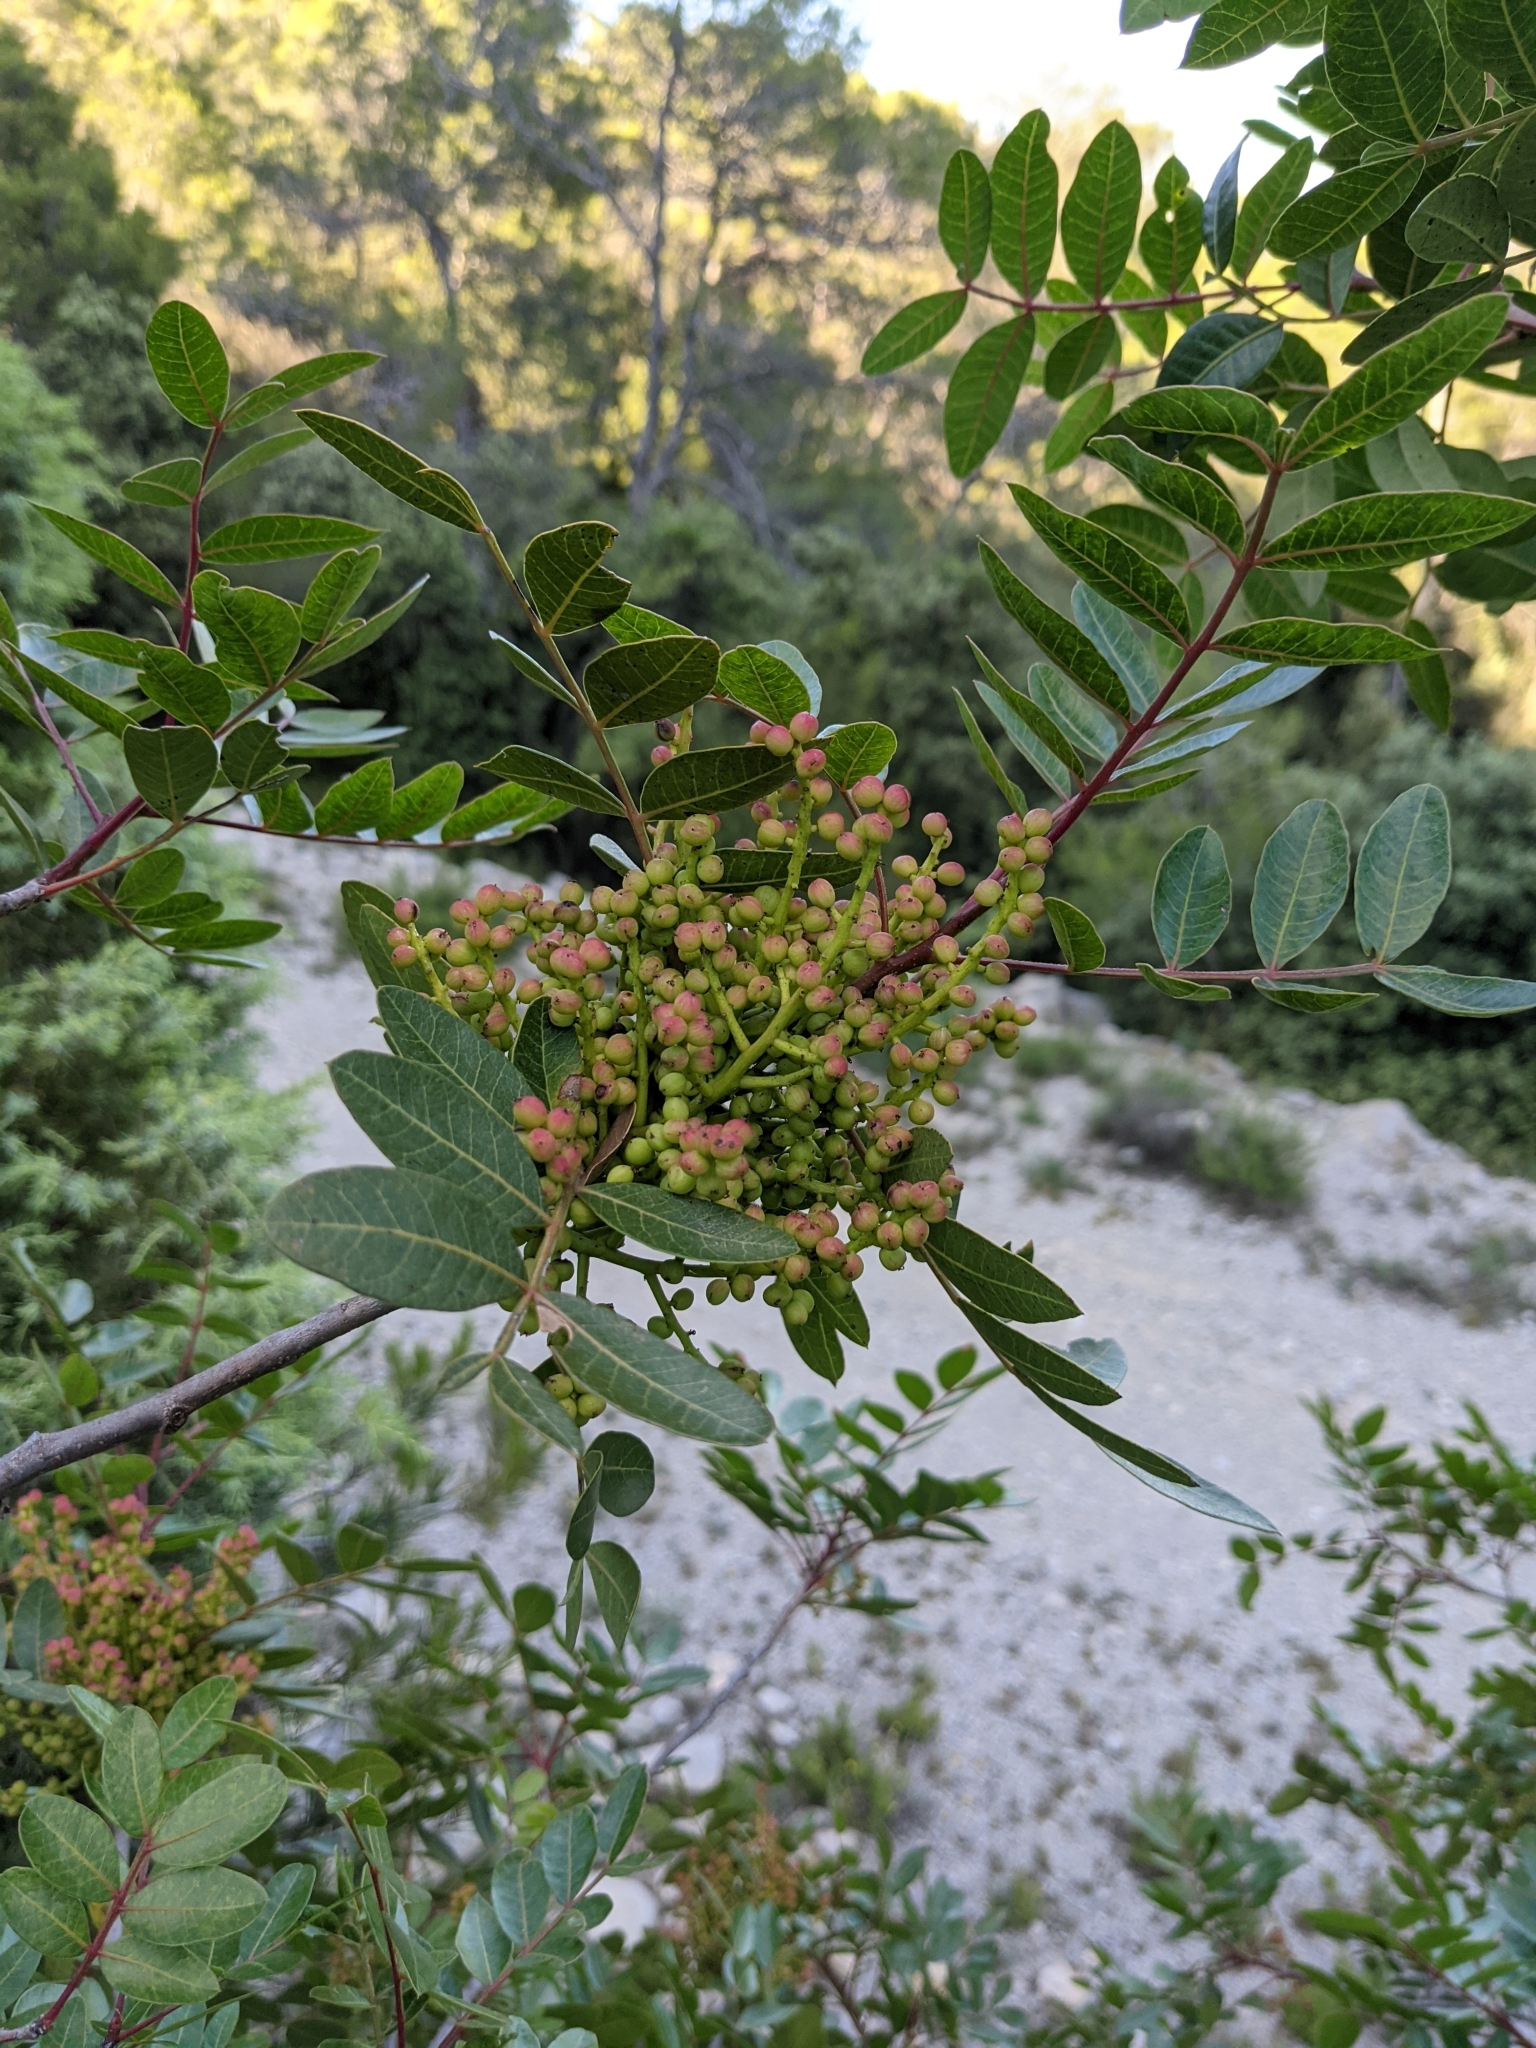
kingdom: Plantae
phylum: Tracheophyta
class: Magnoliopsida
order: Sapindales
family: Anacardiaceae
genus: Pistacia
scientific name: Pistacia saportae
